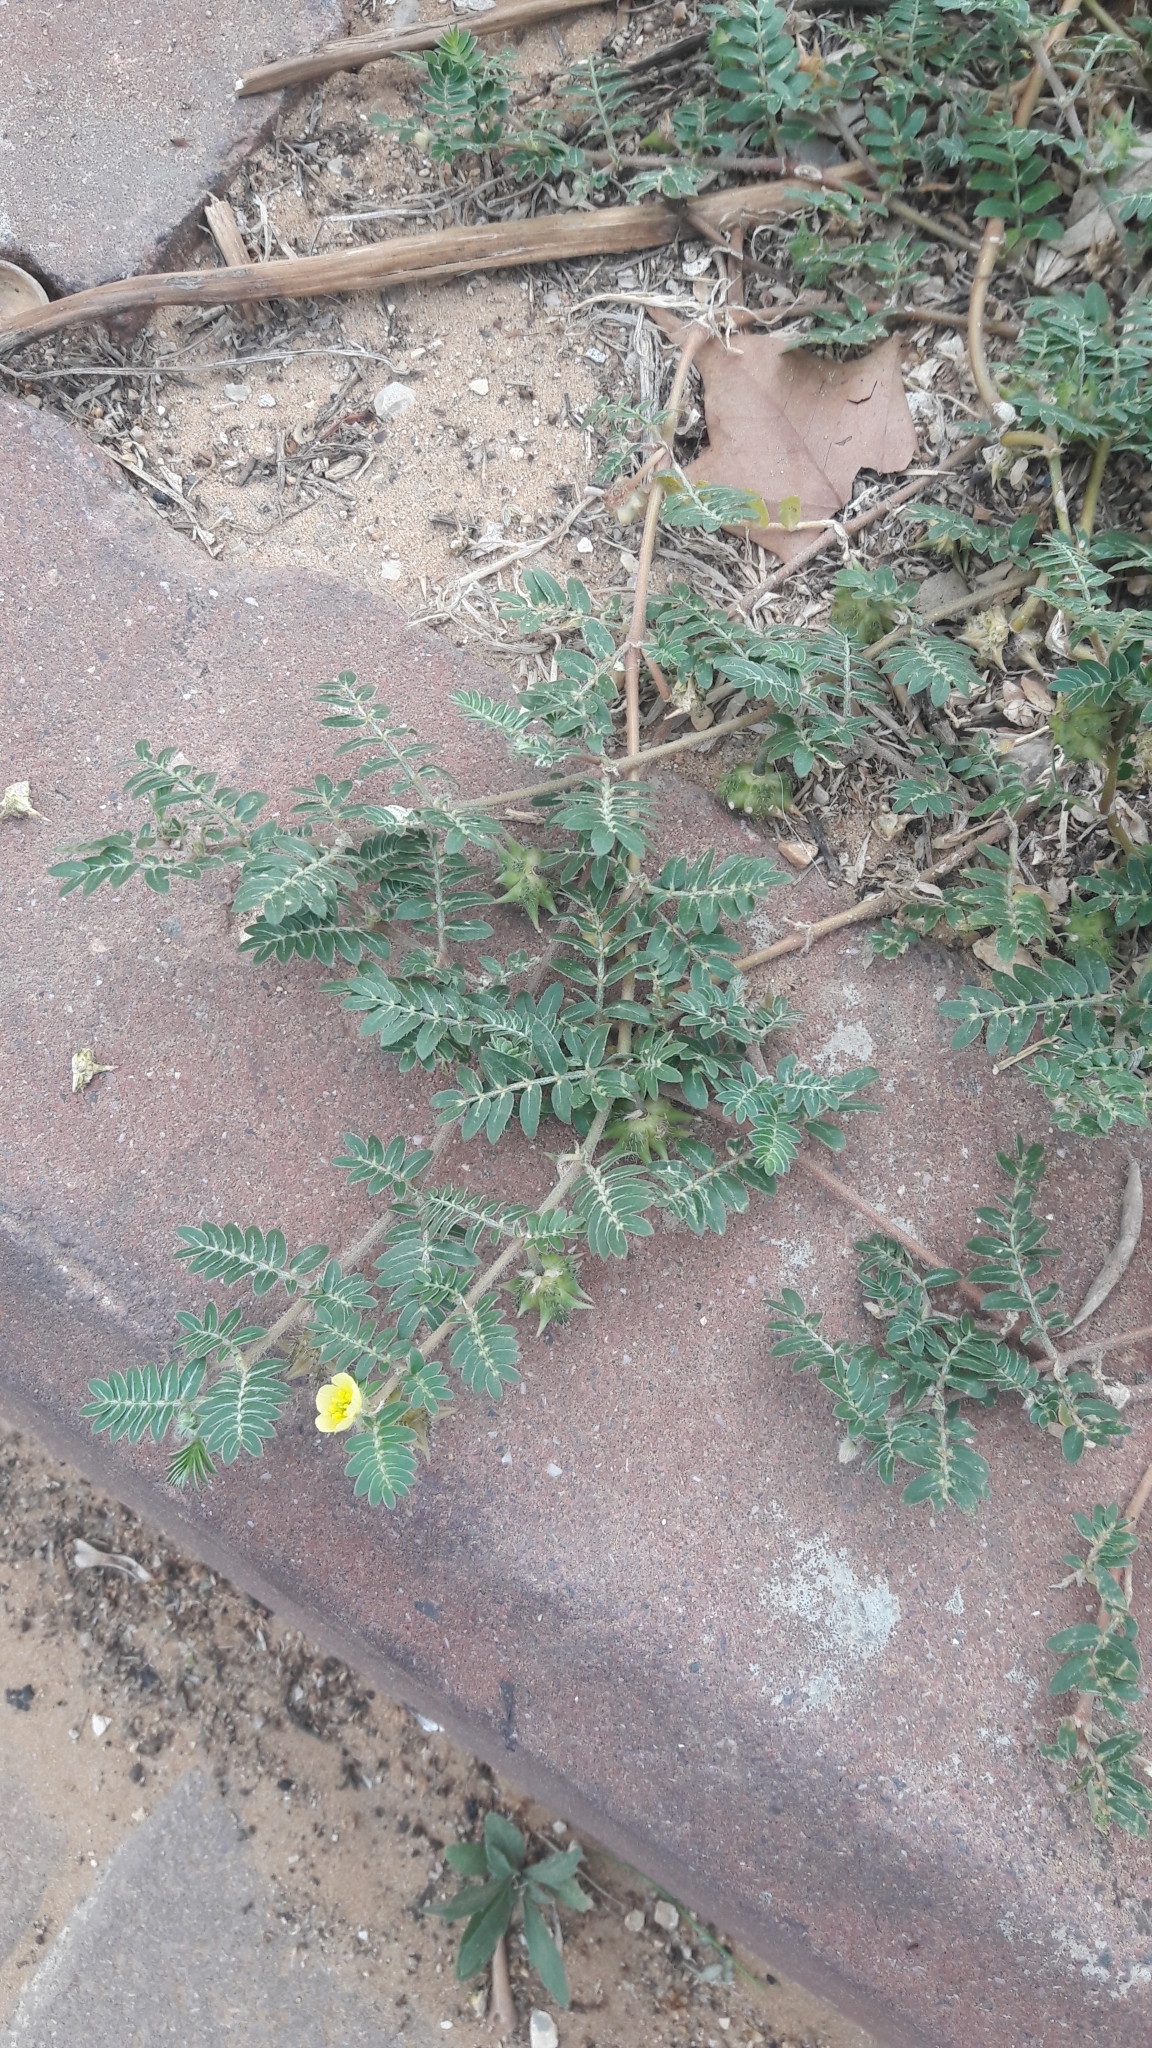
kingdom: Plantae
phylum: Tracheophyta
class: Magnoliopsida
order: Zygophyllales
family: Zygophyllaceae
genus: Tribulus
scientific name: Tribulus terrestris
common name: Puncturevine
